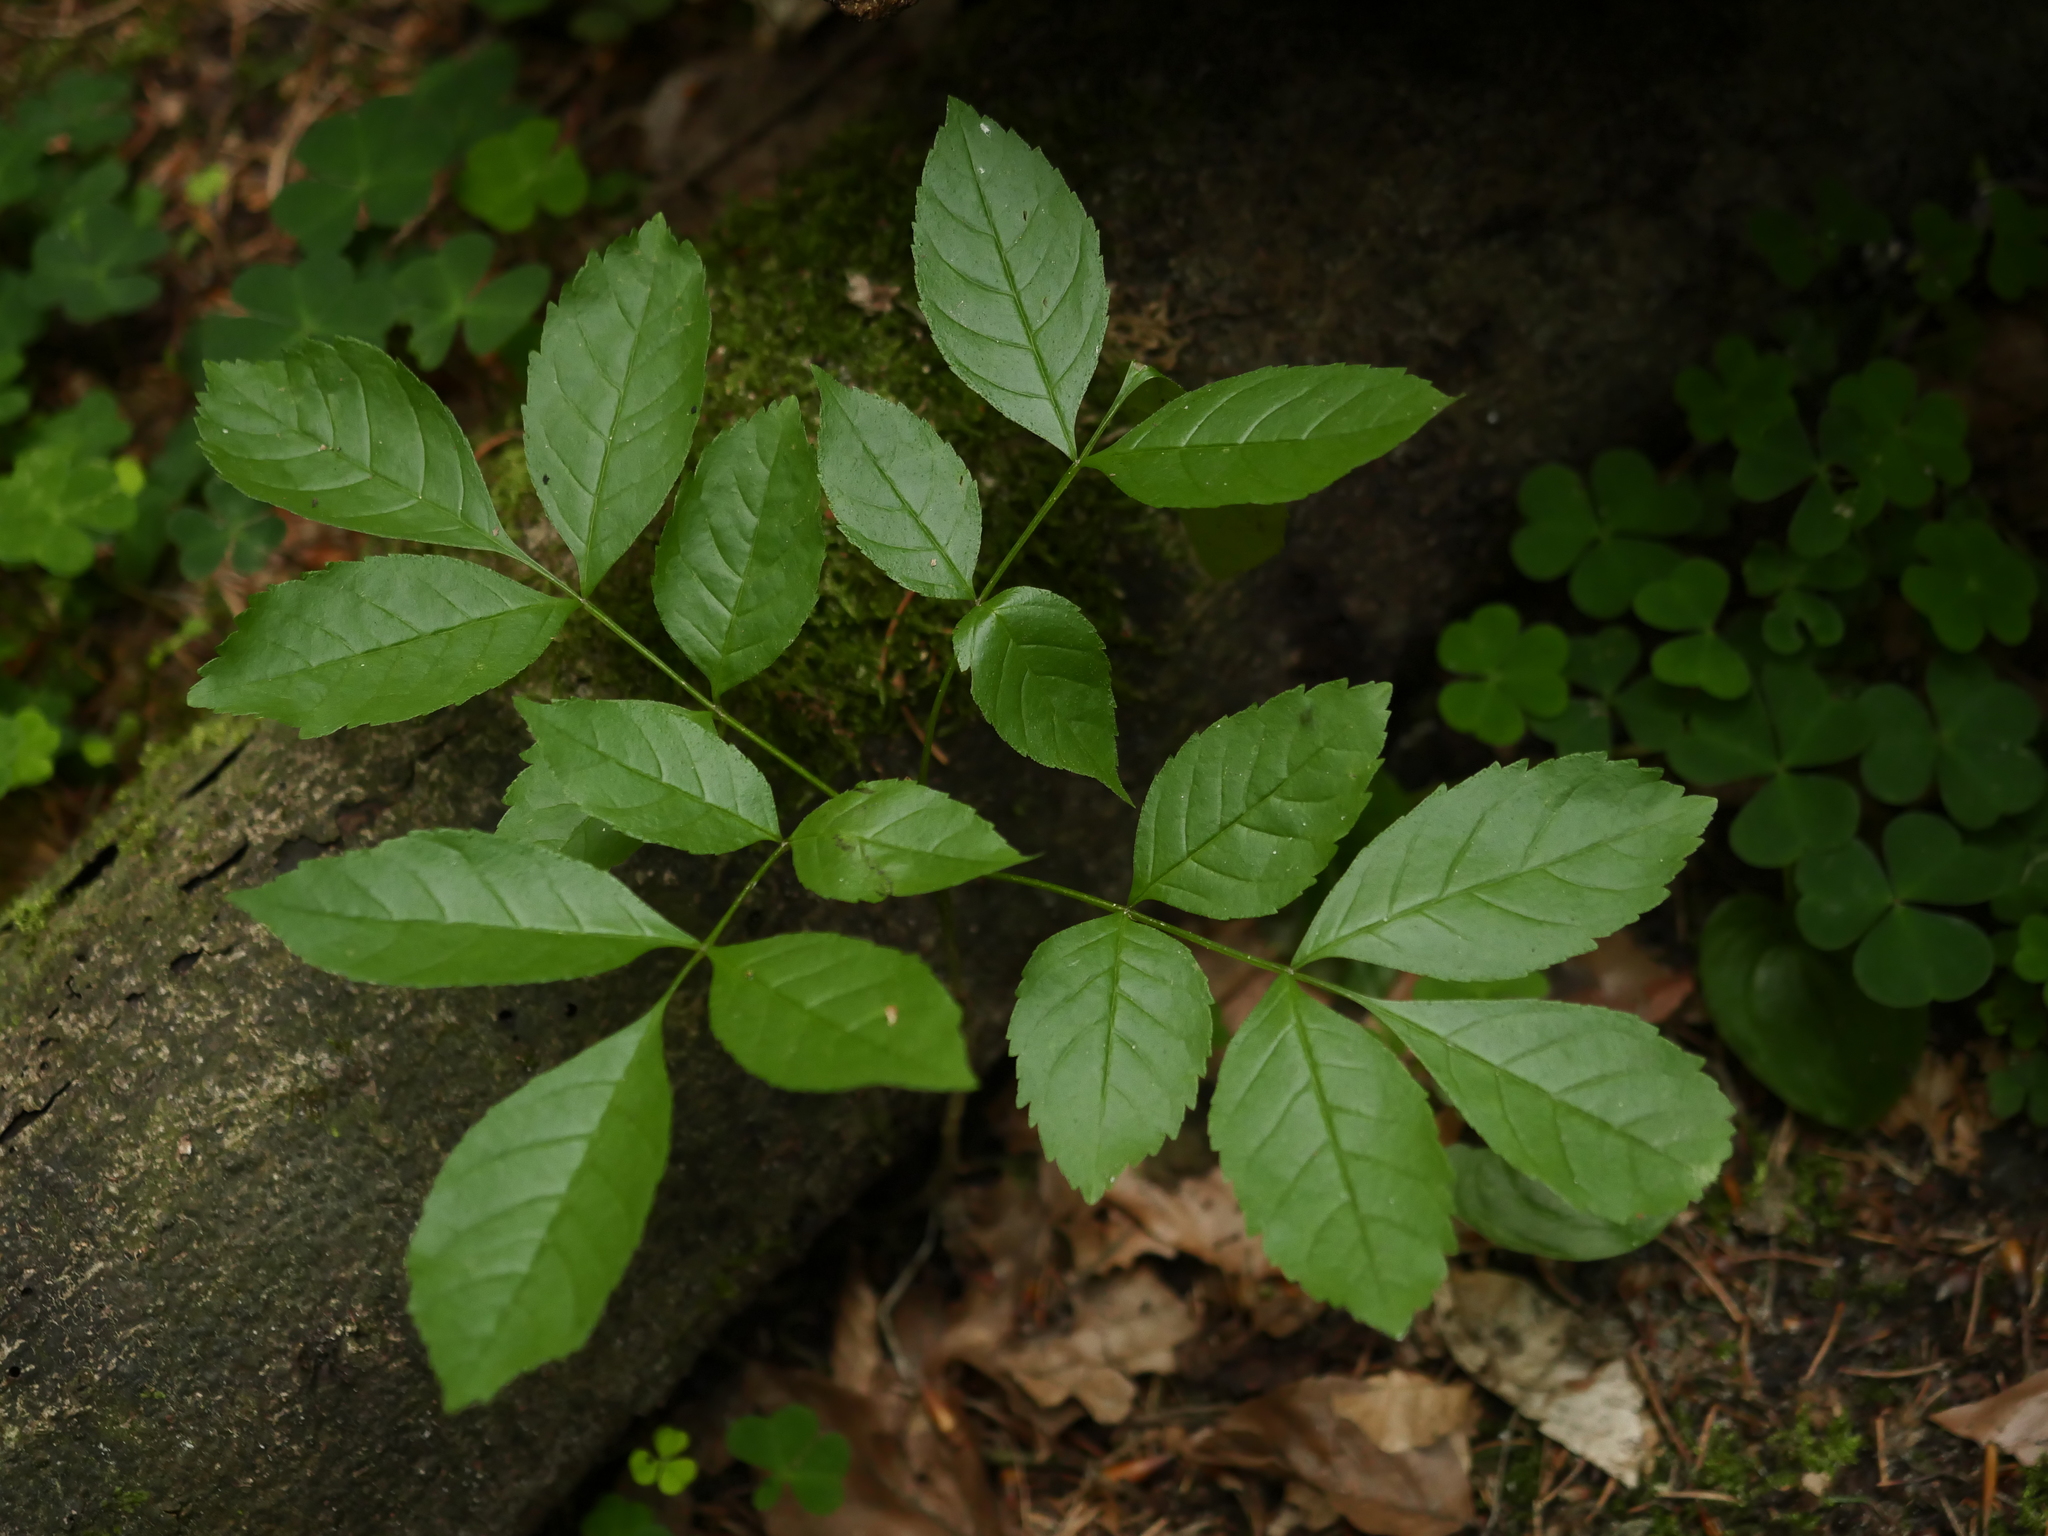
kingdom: Plantae
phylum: Tracheophyta
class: Magnoliopsida
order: Lamiales
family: Oleaceae
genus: Fraxinus
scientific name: Fraxinus excelsior
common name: European ash
